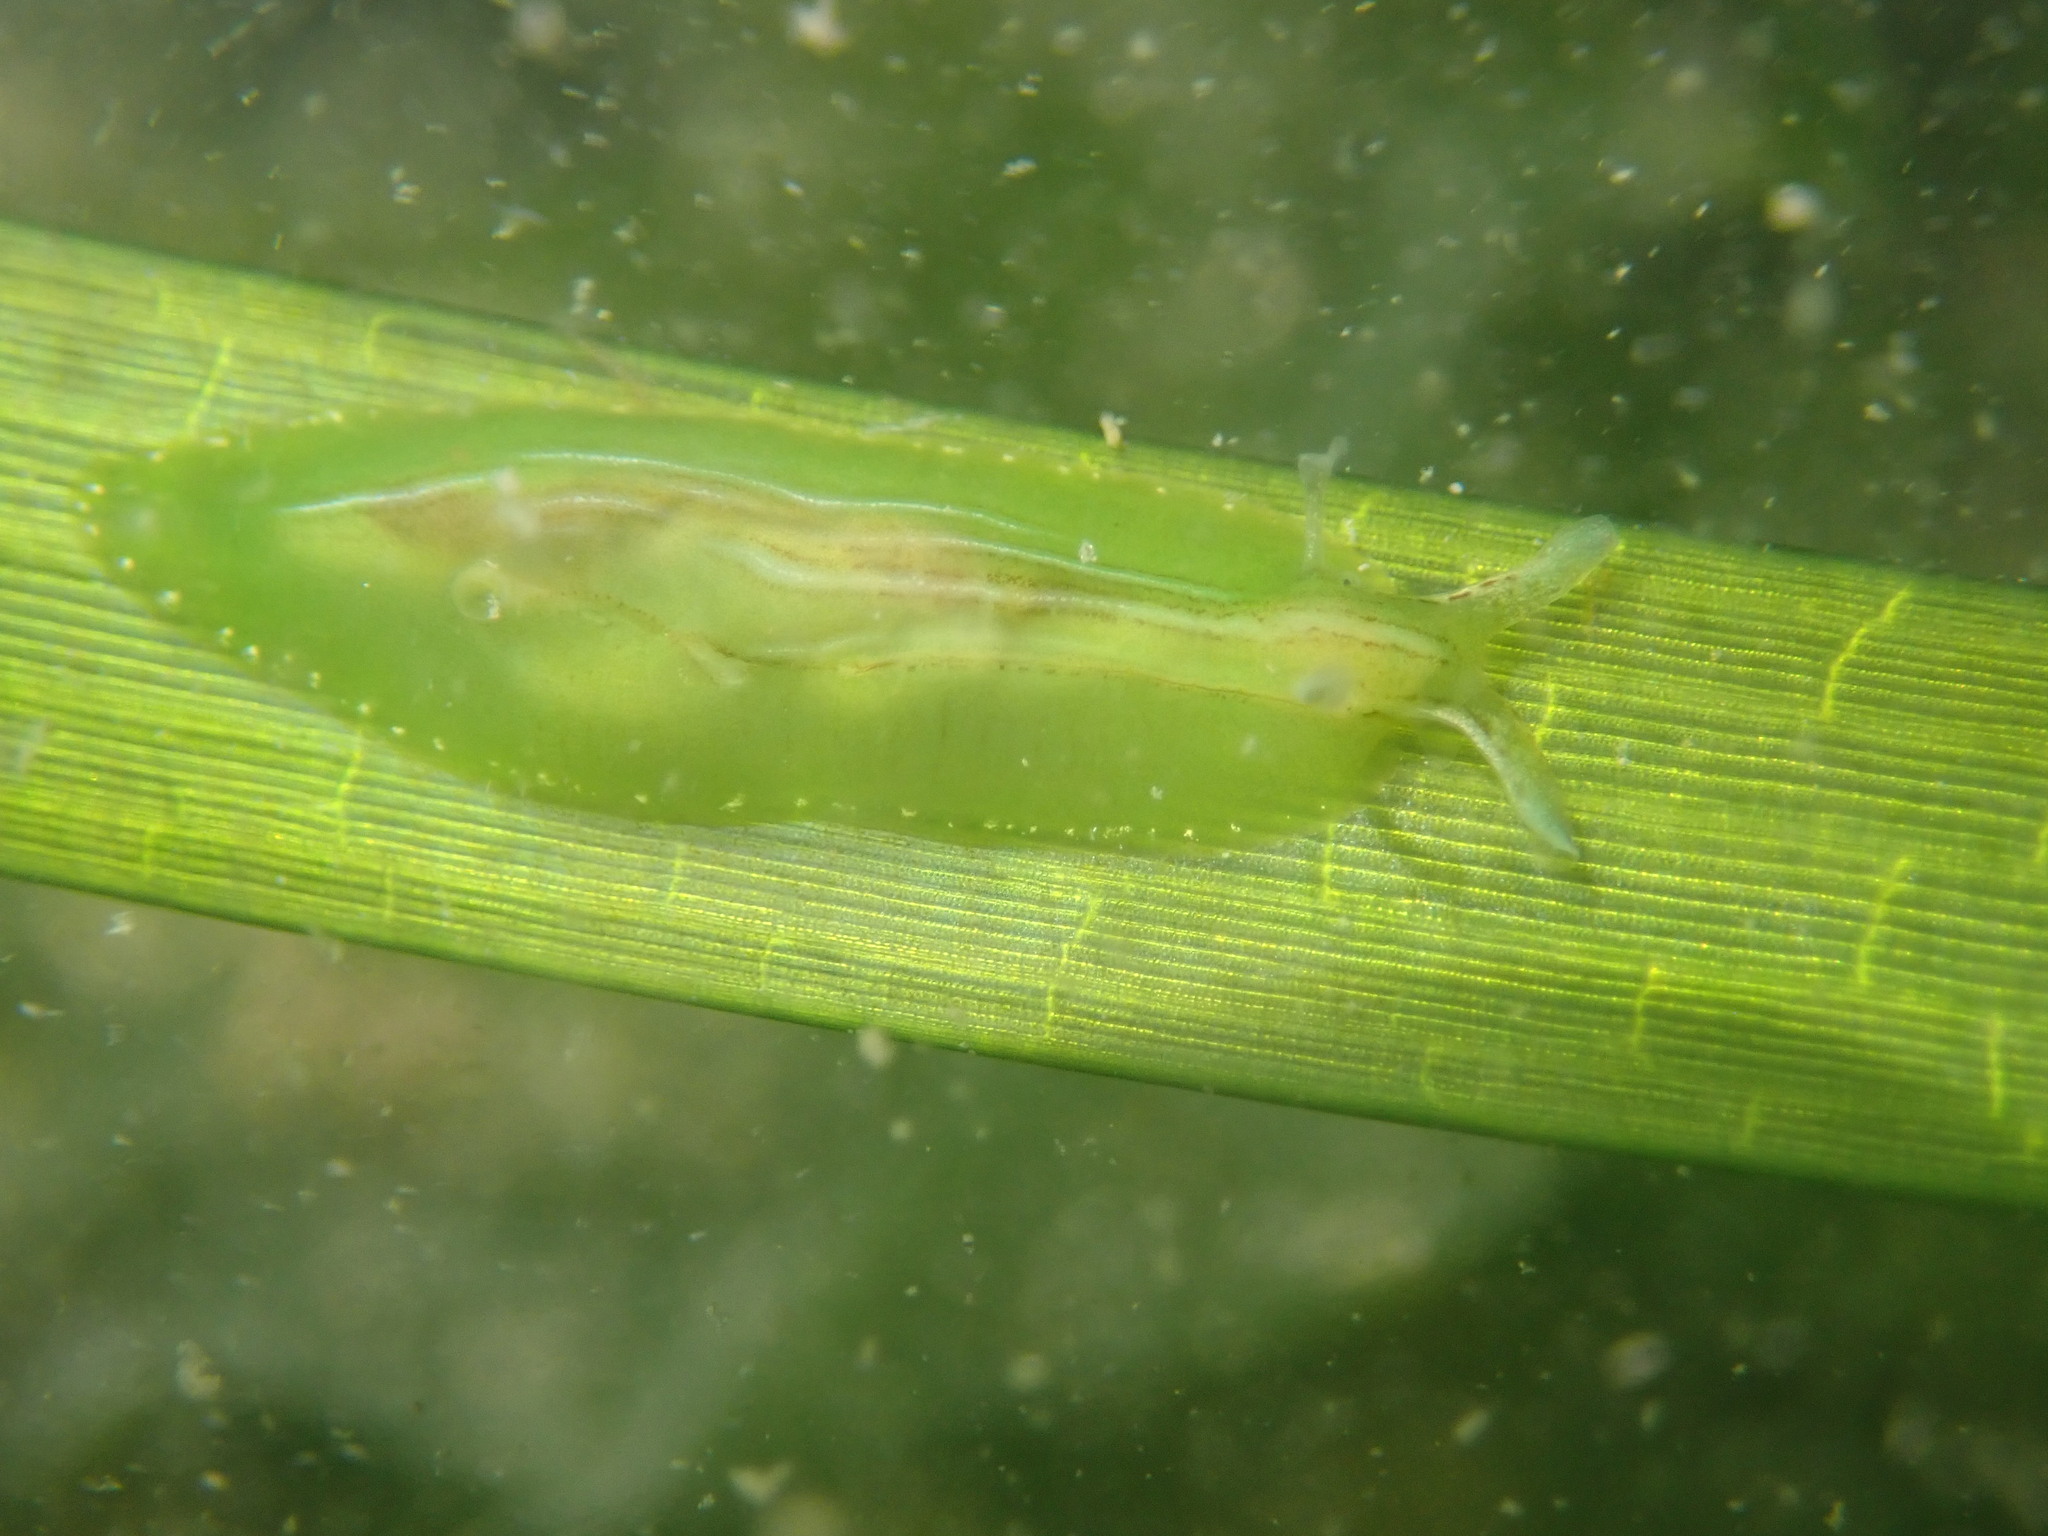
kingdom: Animalia
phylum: Mollusca
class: Gastropoda
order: Aplysiida
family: Aplysiidae
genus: Phyllaplysia
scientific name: Phyllaplysia taylori
